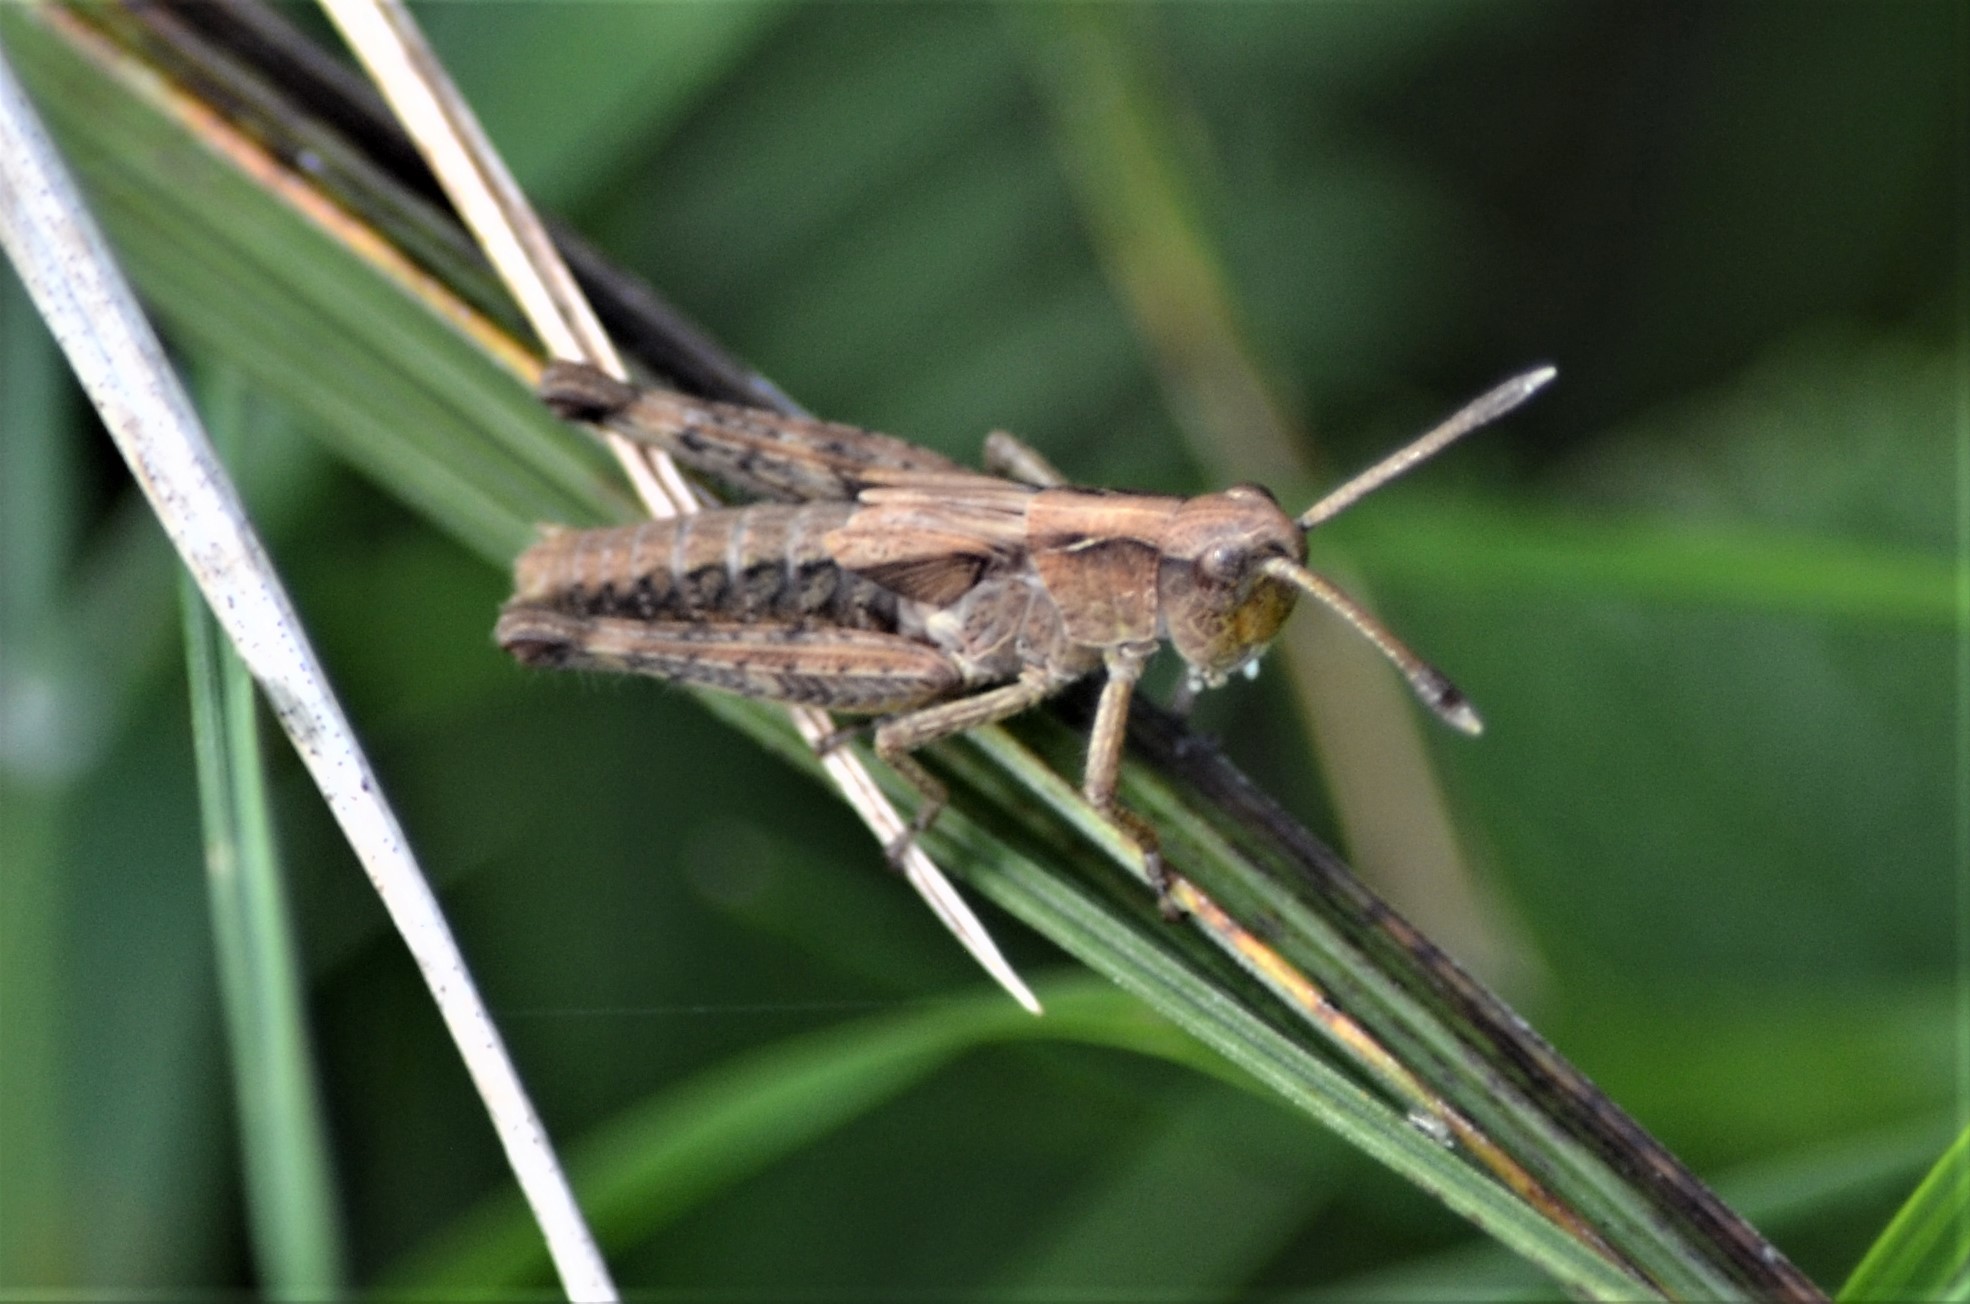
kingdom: Animalia
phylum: Arthropoda
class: Insecta
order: Orthoptera
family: Acrididae
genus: Gomphocerippus
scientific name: Gomphocerippus rufus
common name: Rufous grasshopper
